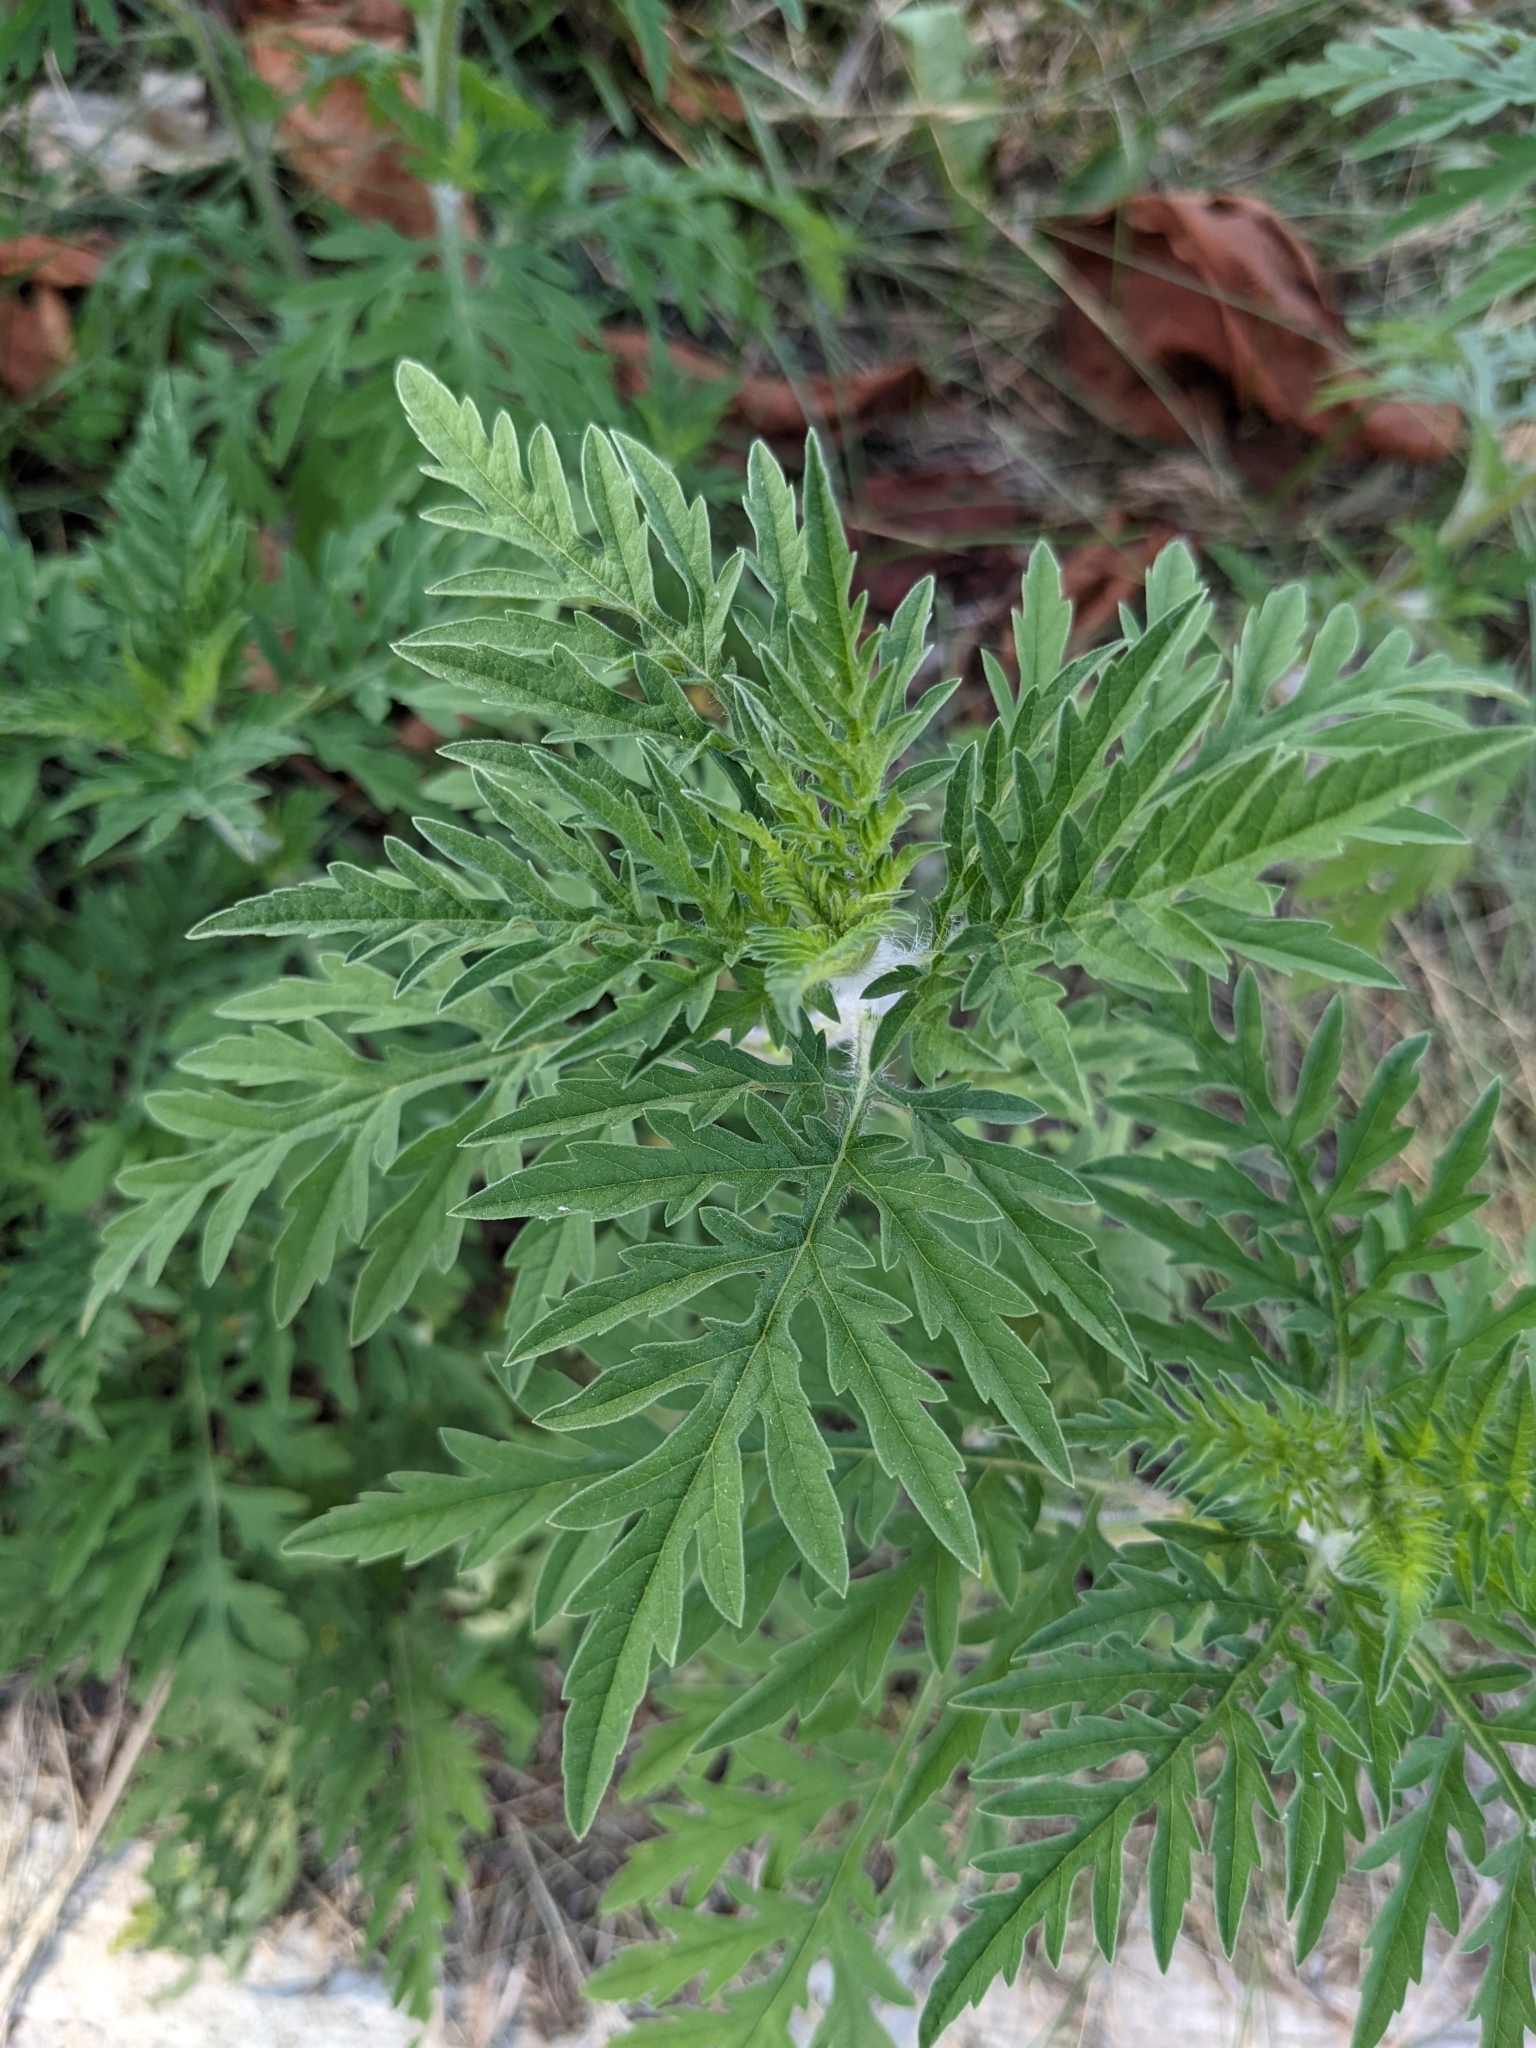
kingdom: Plantae
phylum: Tracheophyta
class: Magnoliopsida
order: Asterales
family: Asteraceae
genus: Ambrosia
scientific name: Ambrosia artemisiifolia
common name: Annual ragweed
